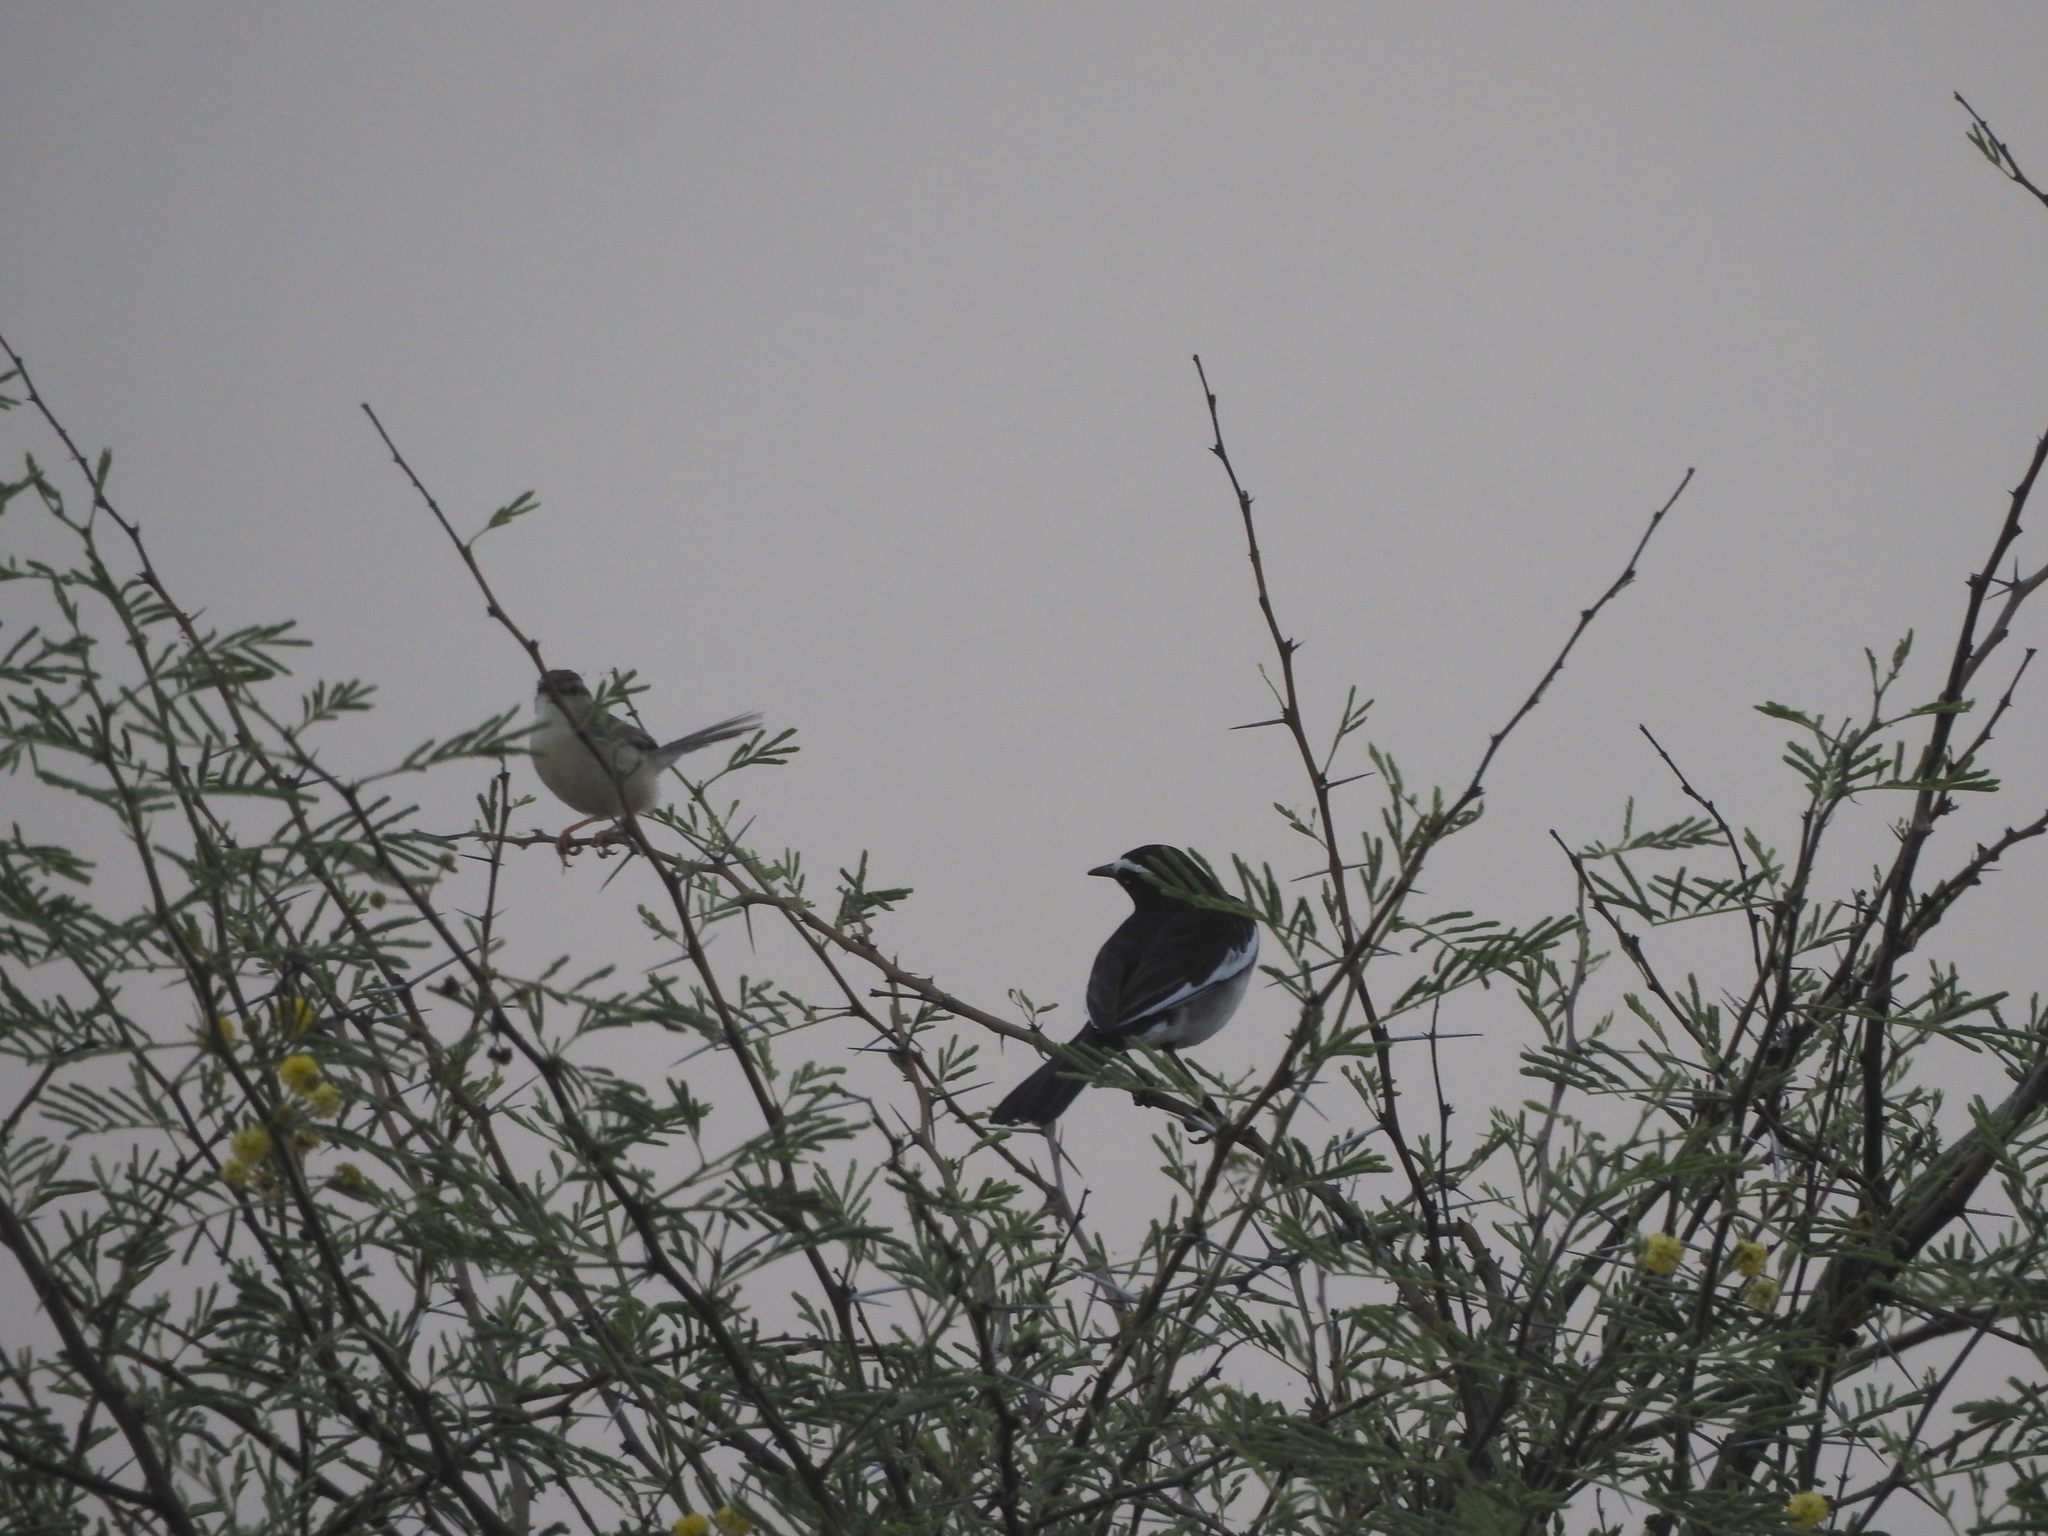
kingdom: Animalia
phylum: Chordata
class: Aves
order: Passeriformes
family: Motacillidae
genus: Motacilla
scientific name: Motacilla maderaspatensis
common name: White-browed wagtail
